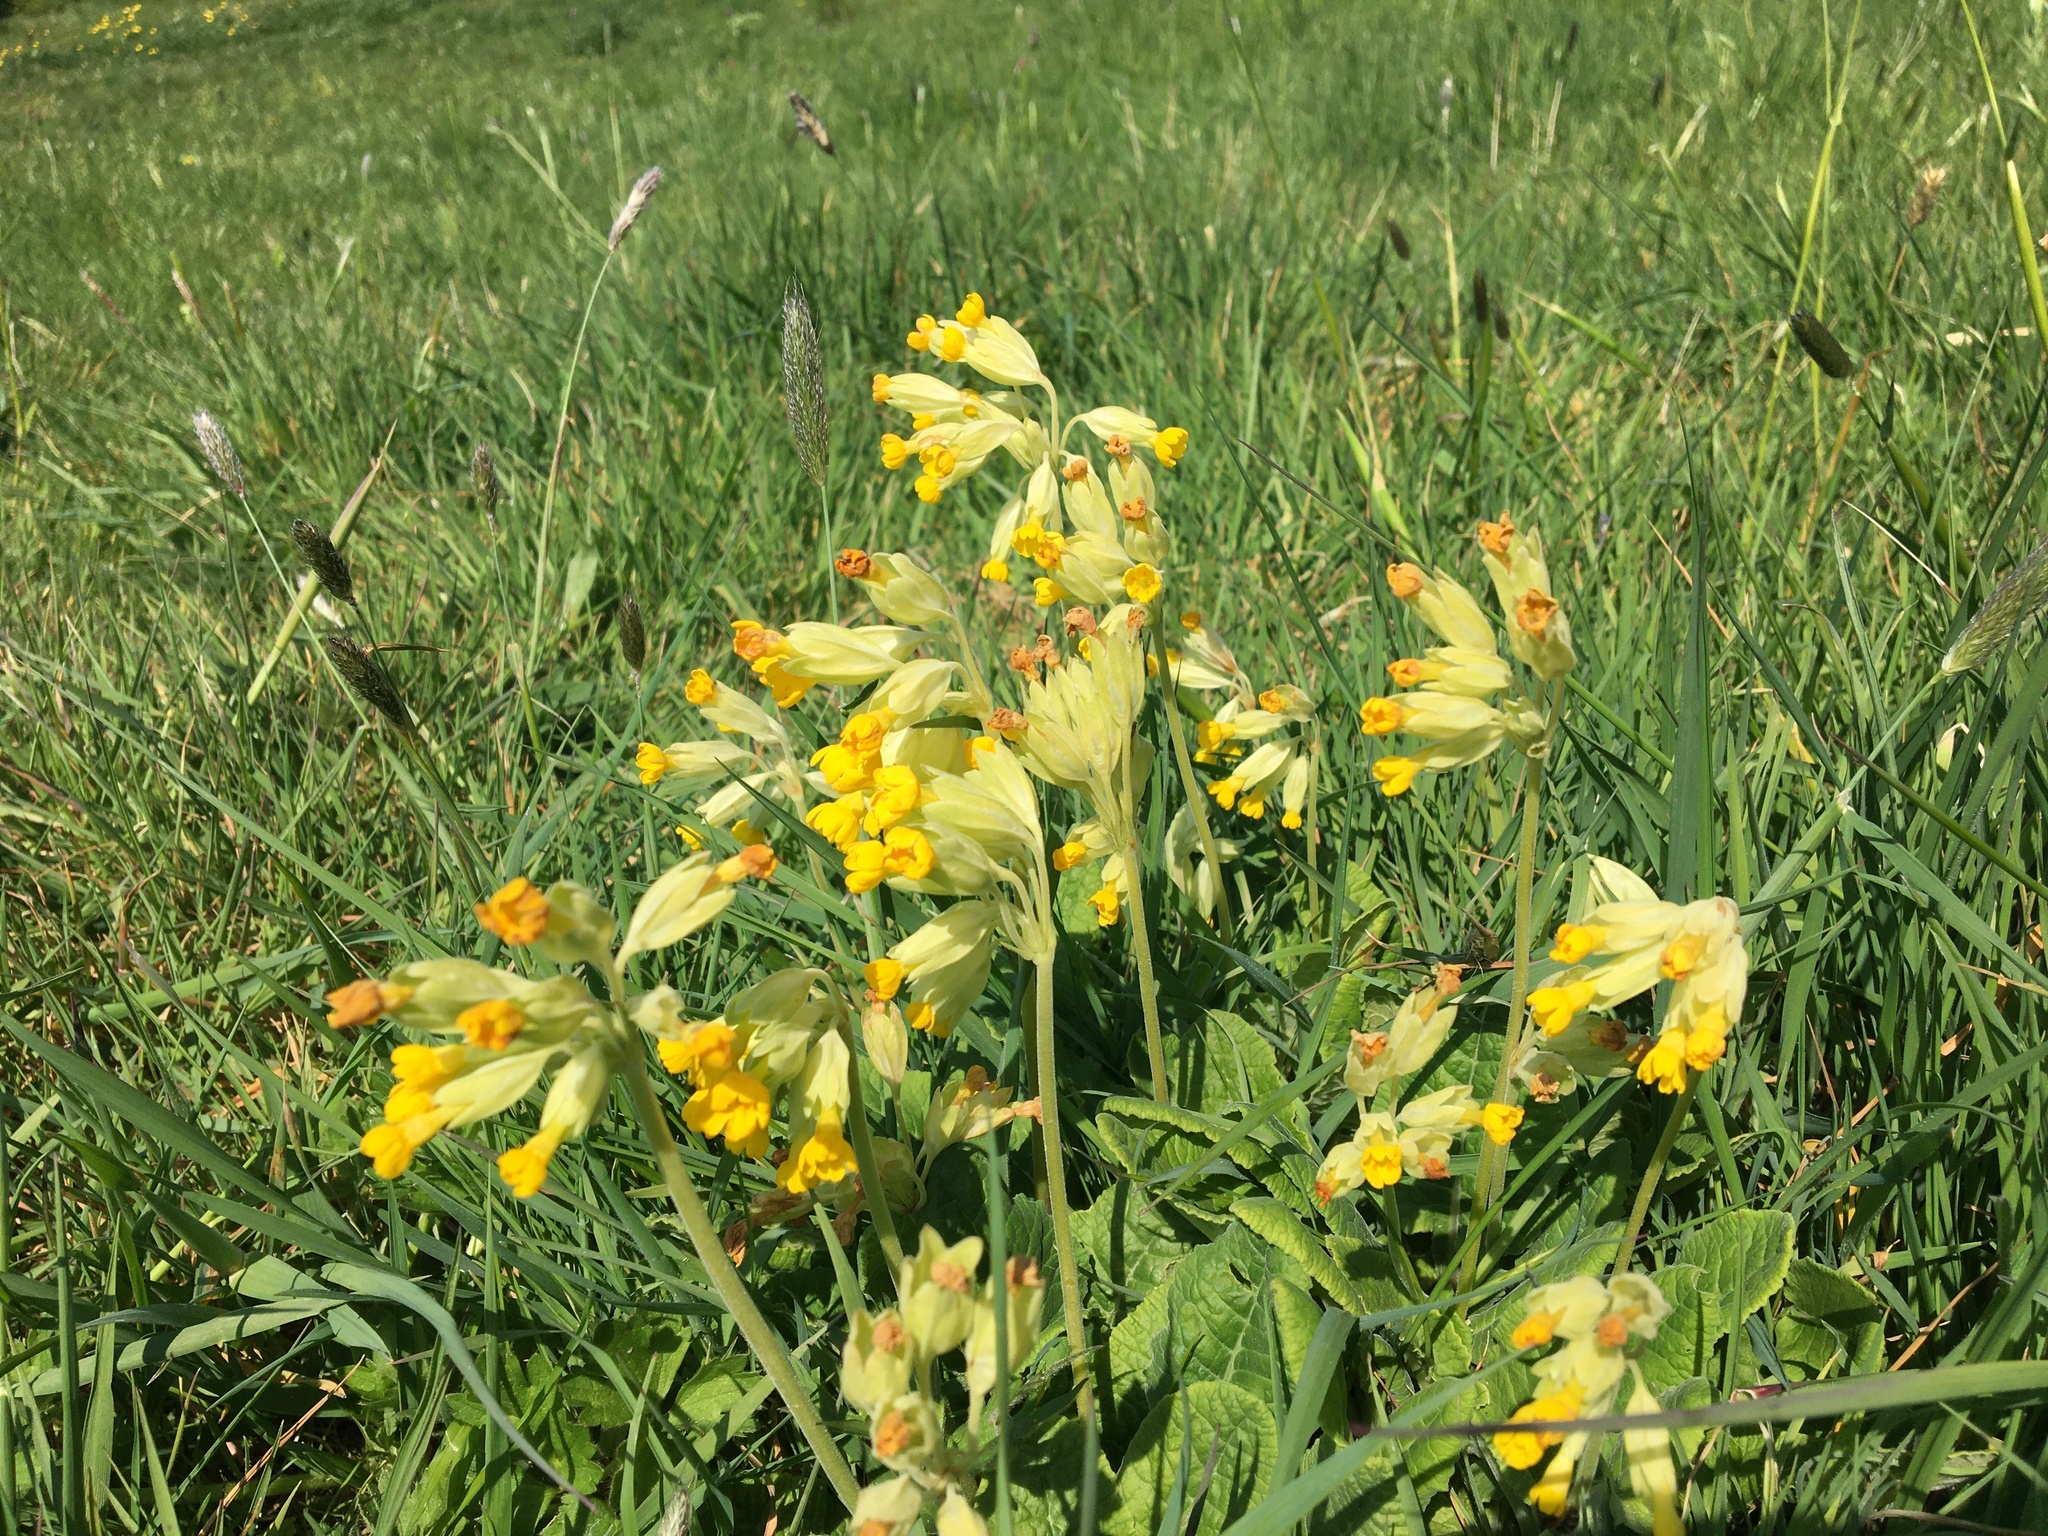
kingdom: Plantae
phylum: Tracheophyta
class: Magnoliopsida
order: Ericales
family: Primulaceae
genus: Primula
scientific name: Primula veris
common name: Cowslip
